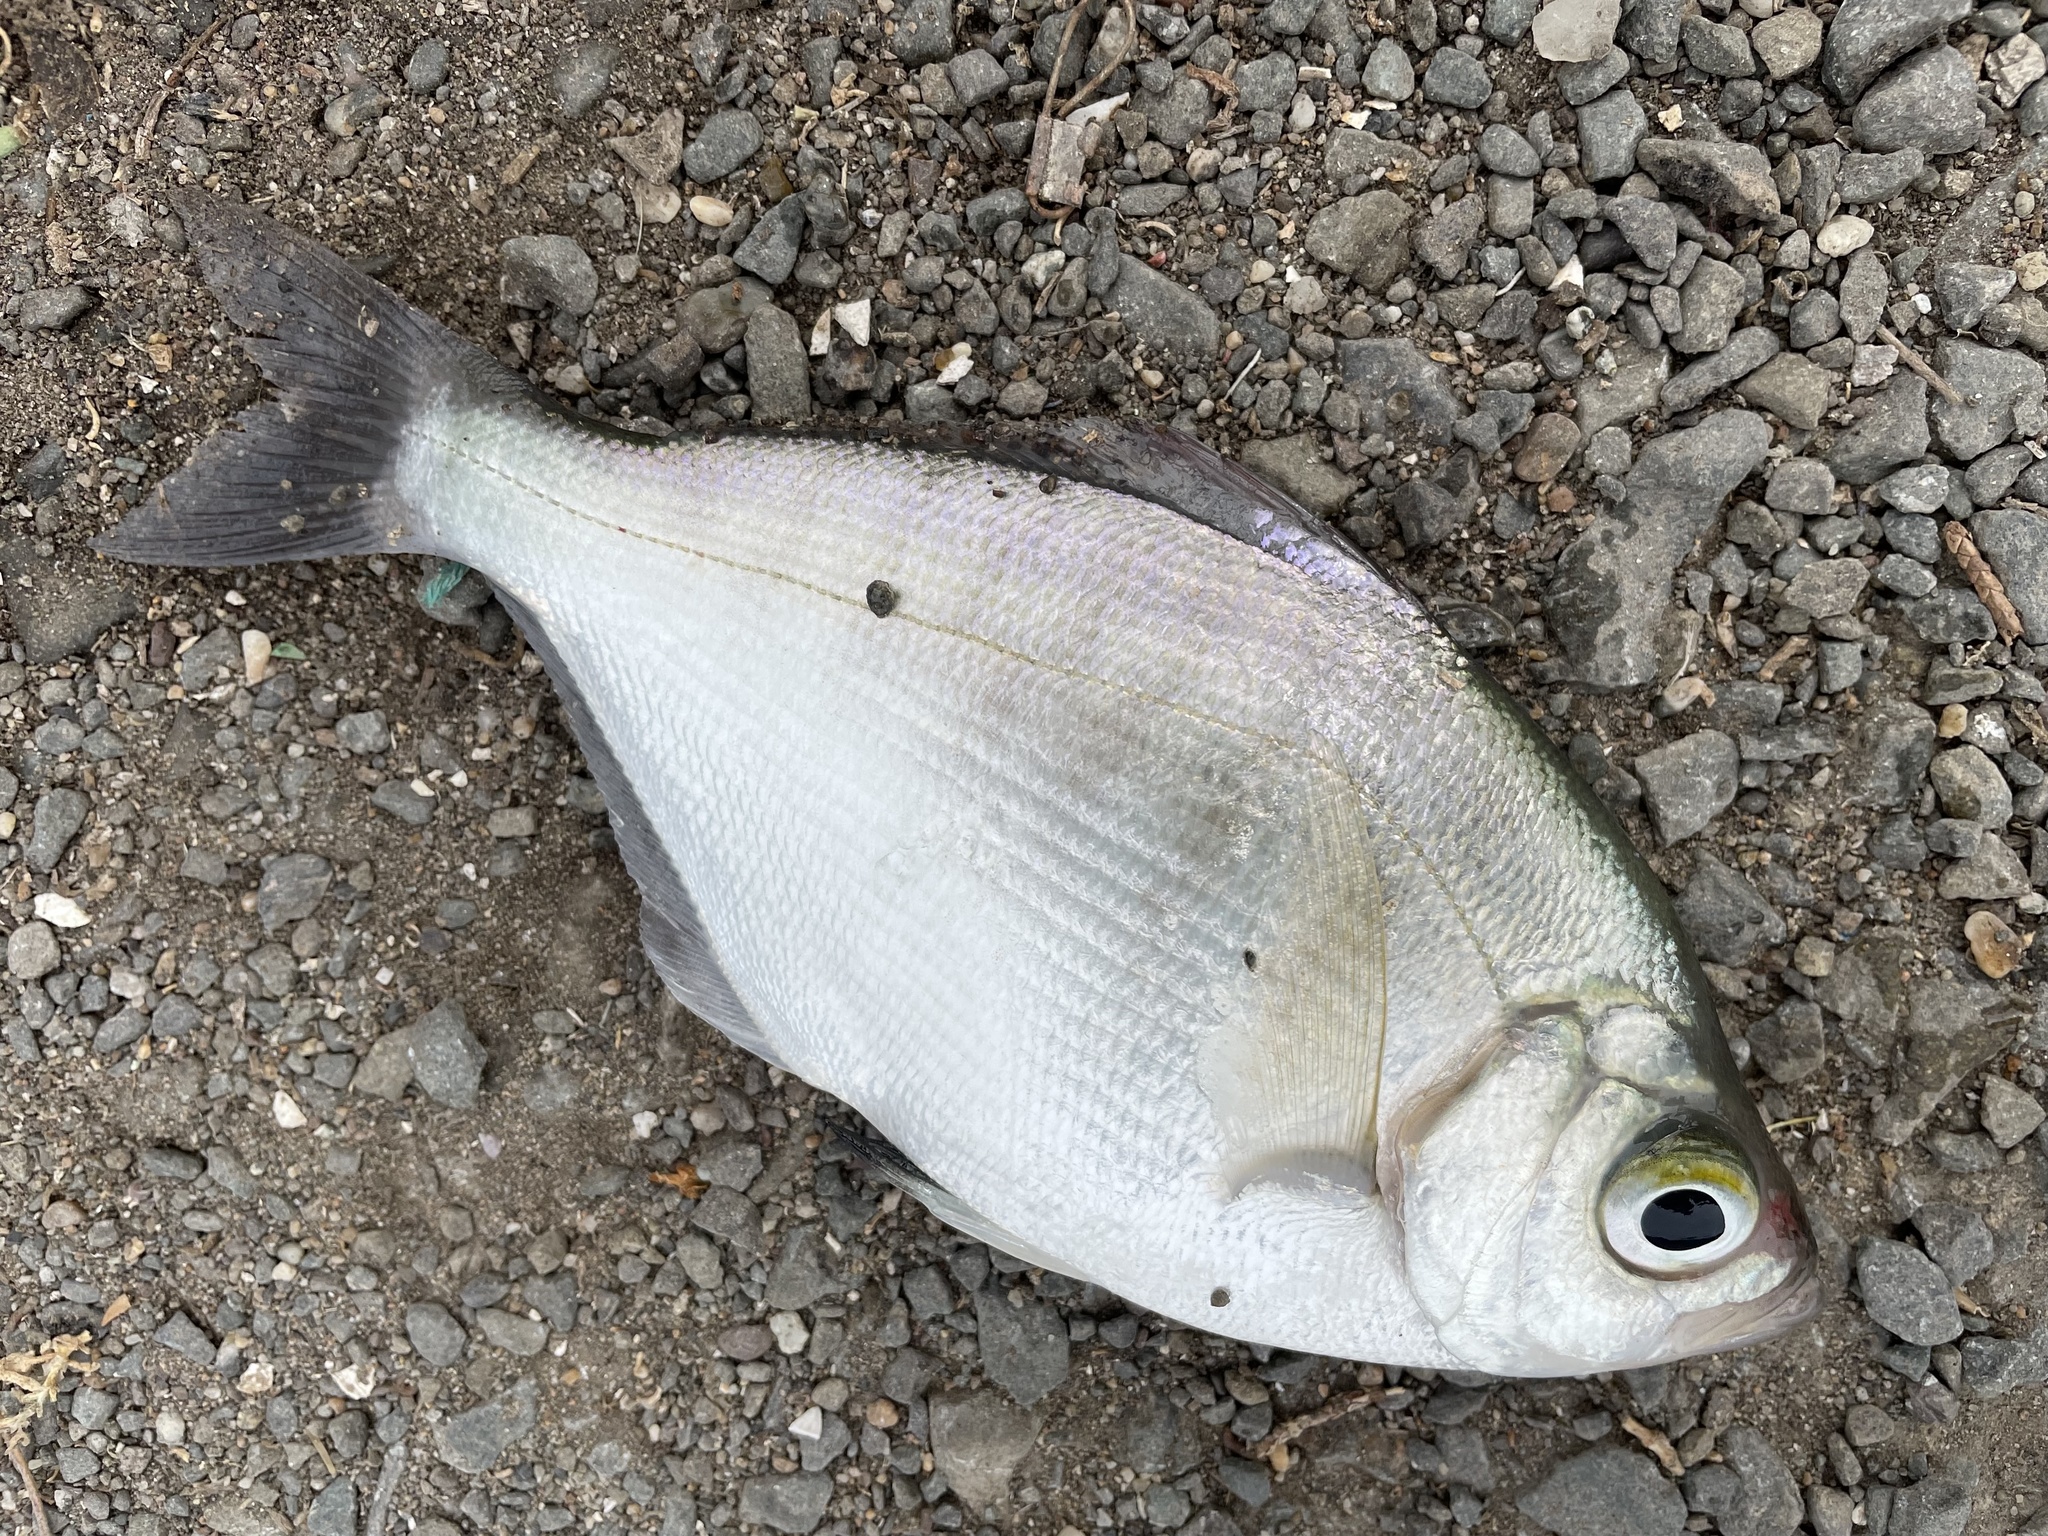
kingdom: Animalia
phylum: Chordata
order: Perciformes
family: Embiotocidae
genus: Hyperprosopon
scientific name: Hyperprosopon argenteum
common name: Walleye surfperch
